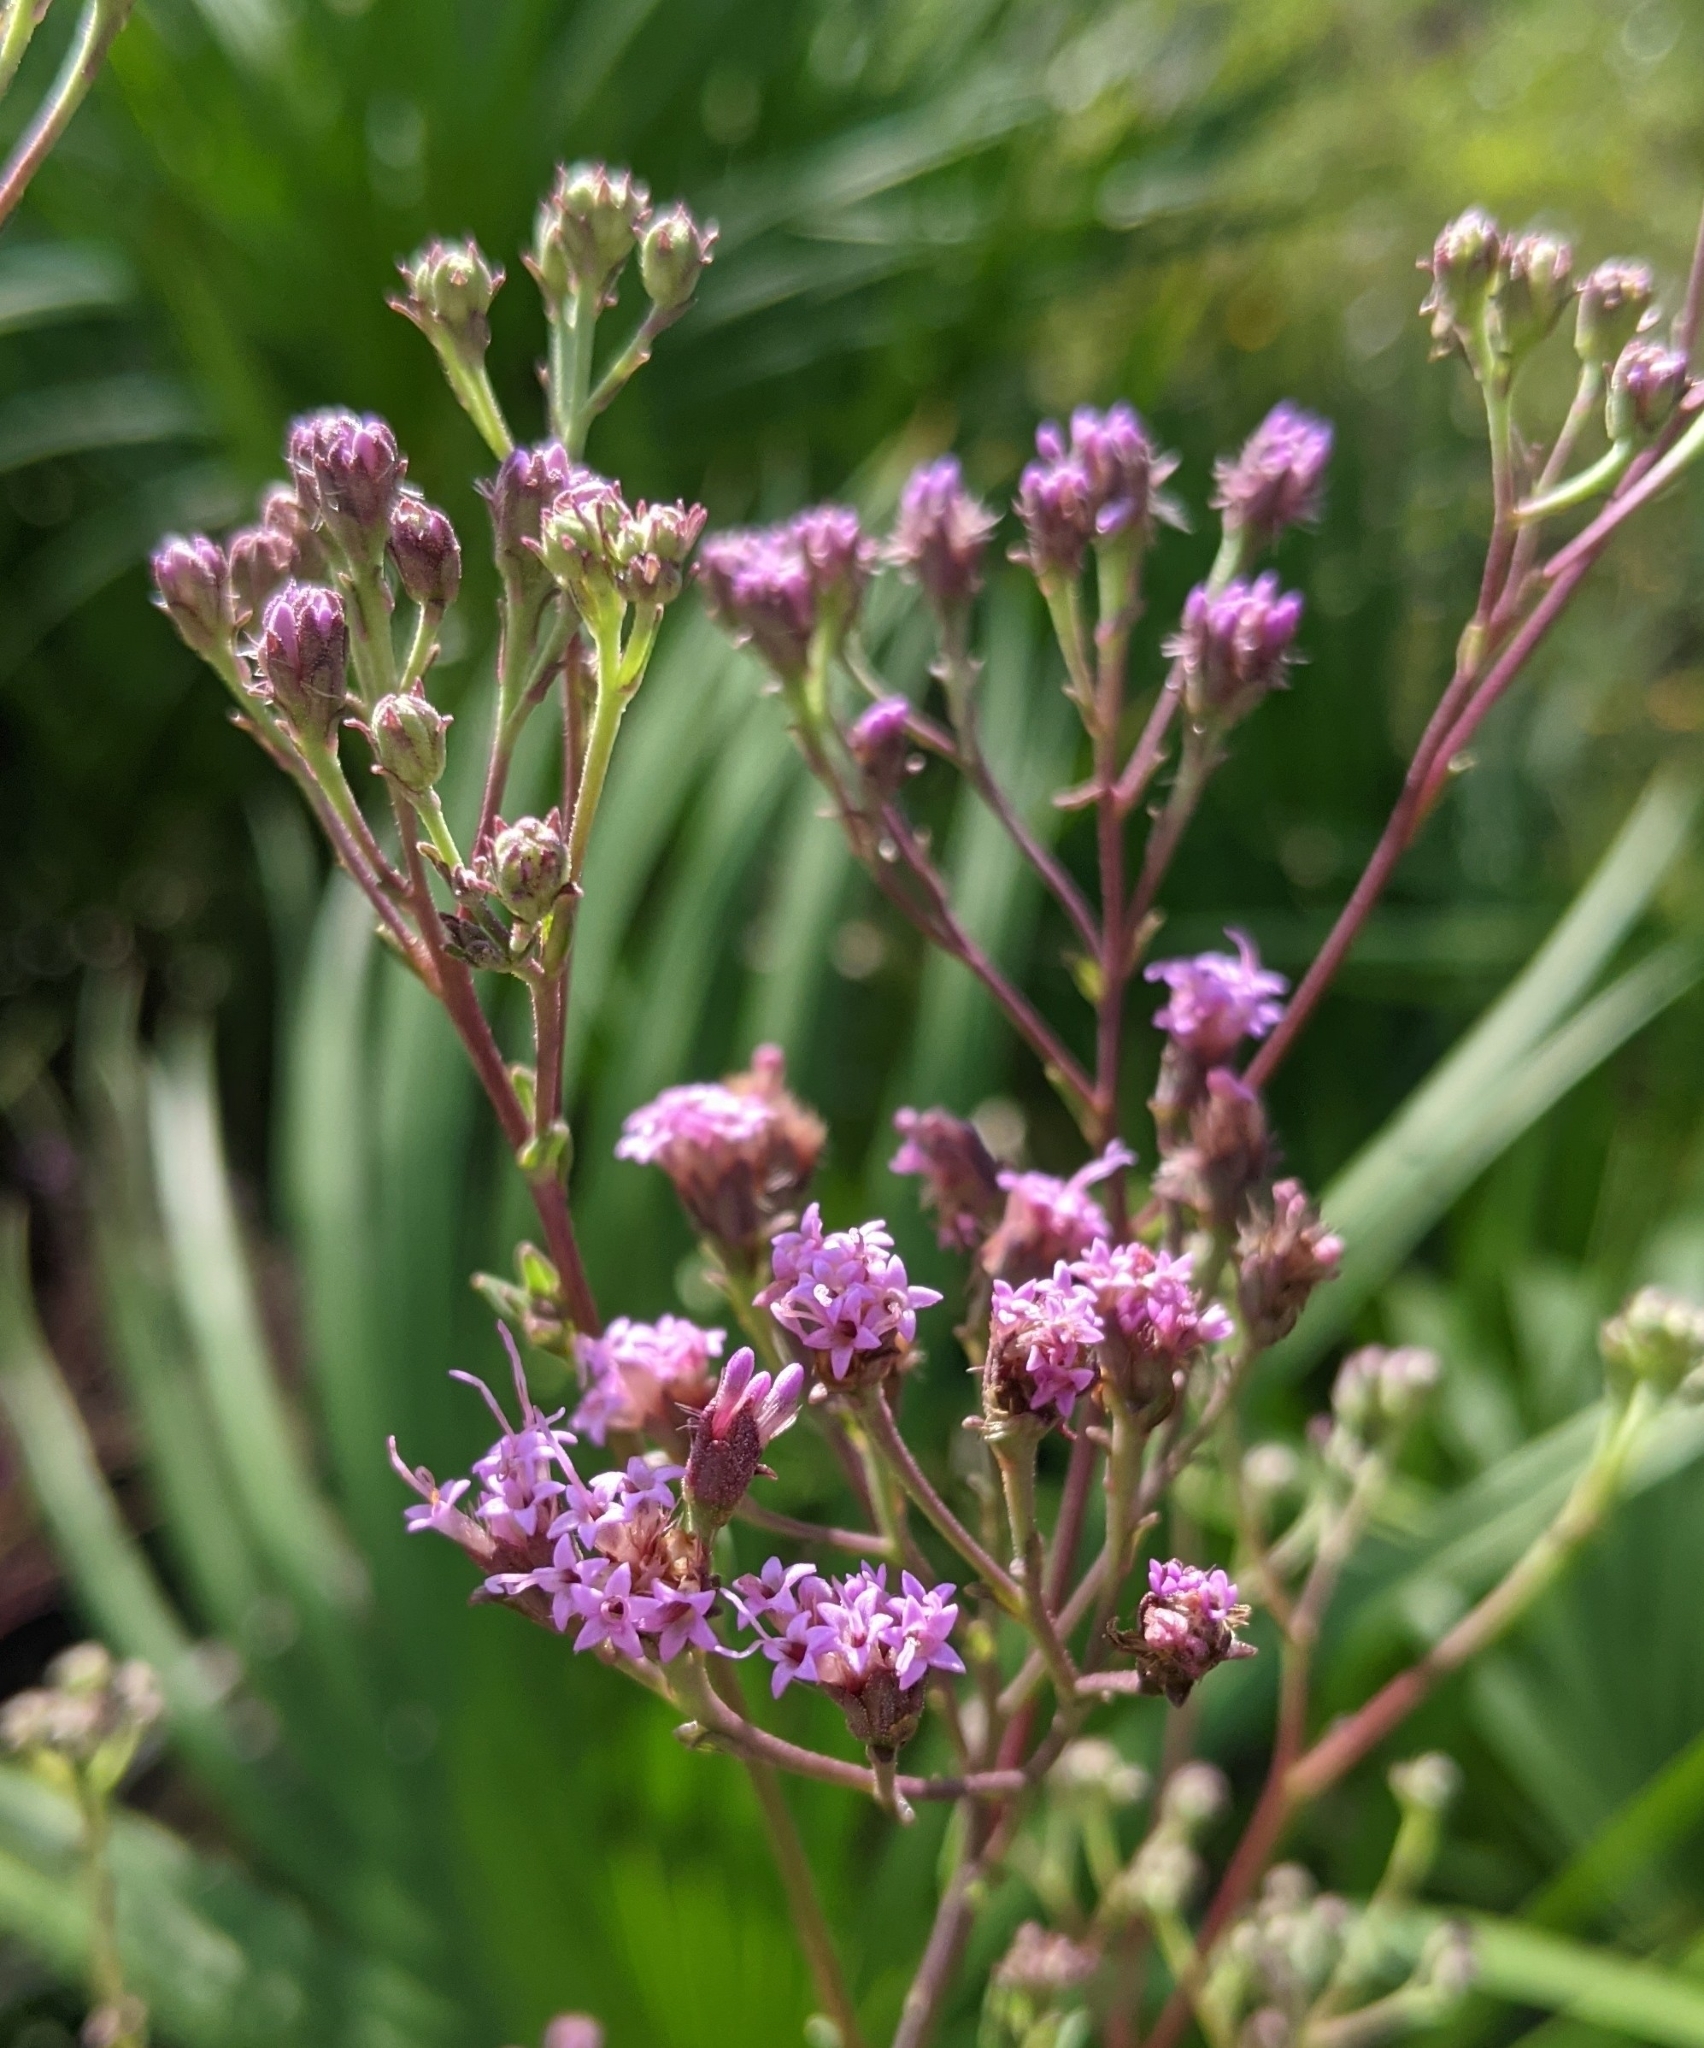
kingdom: Plantae
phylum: Tracheophyta
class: Magnoliopsida
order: Asterales
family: Asteraceae
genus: Carphephorus
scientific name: Carphephorus odoratissimus
